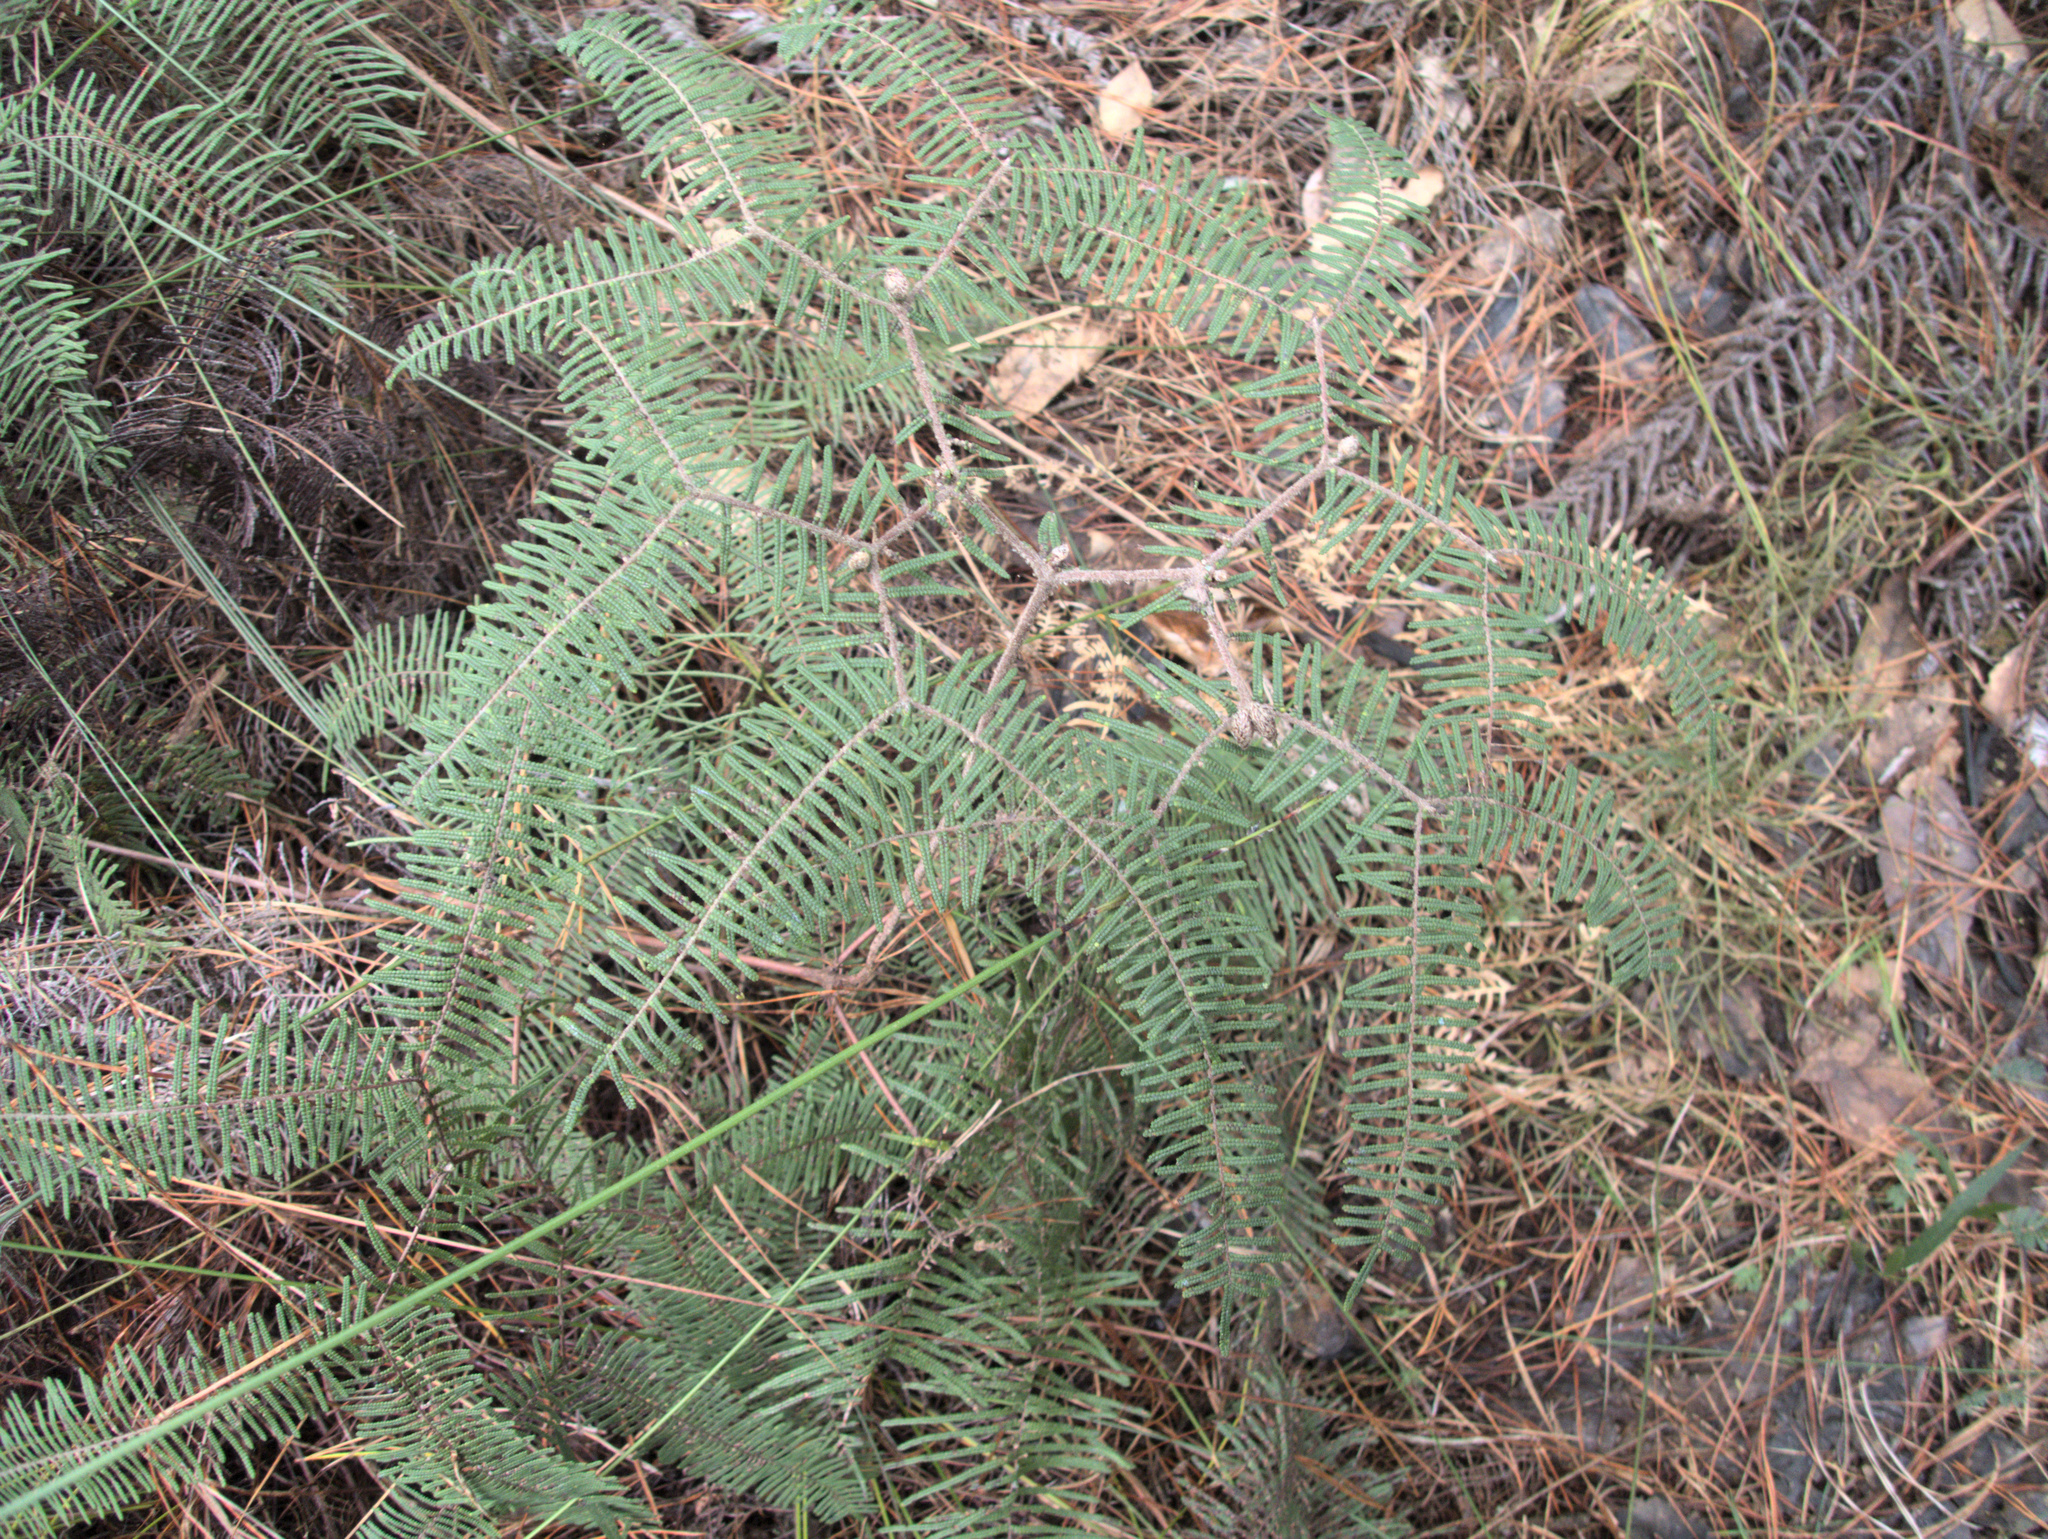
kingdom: Plantae
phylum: Tracheophyta
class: Polypodiopsida
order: Gleicheniales
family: Gleicheniaceae
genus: Gleichenia
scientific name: Gleichenia dicarpa
